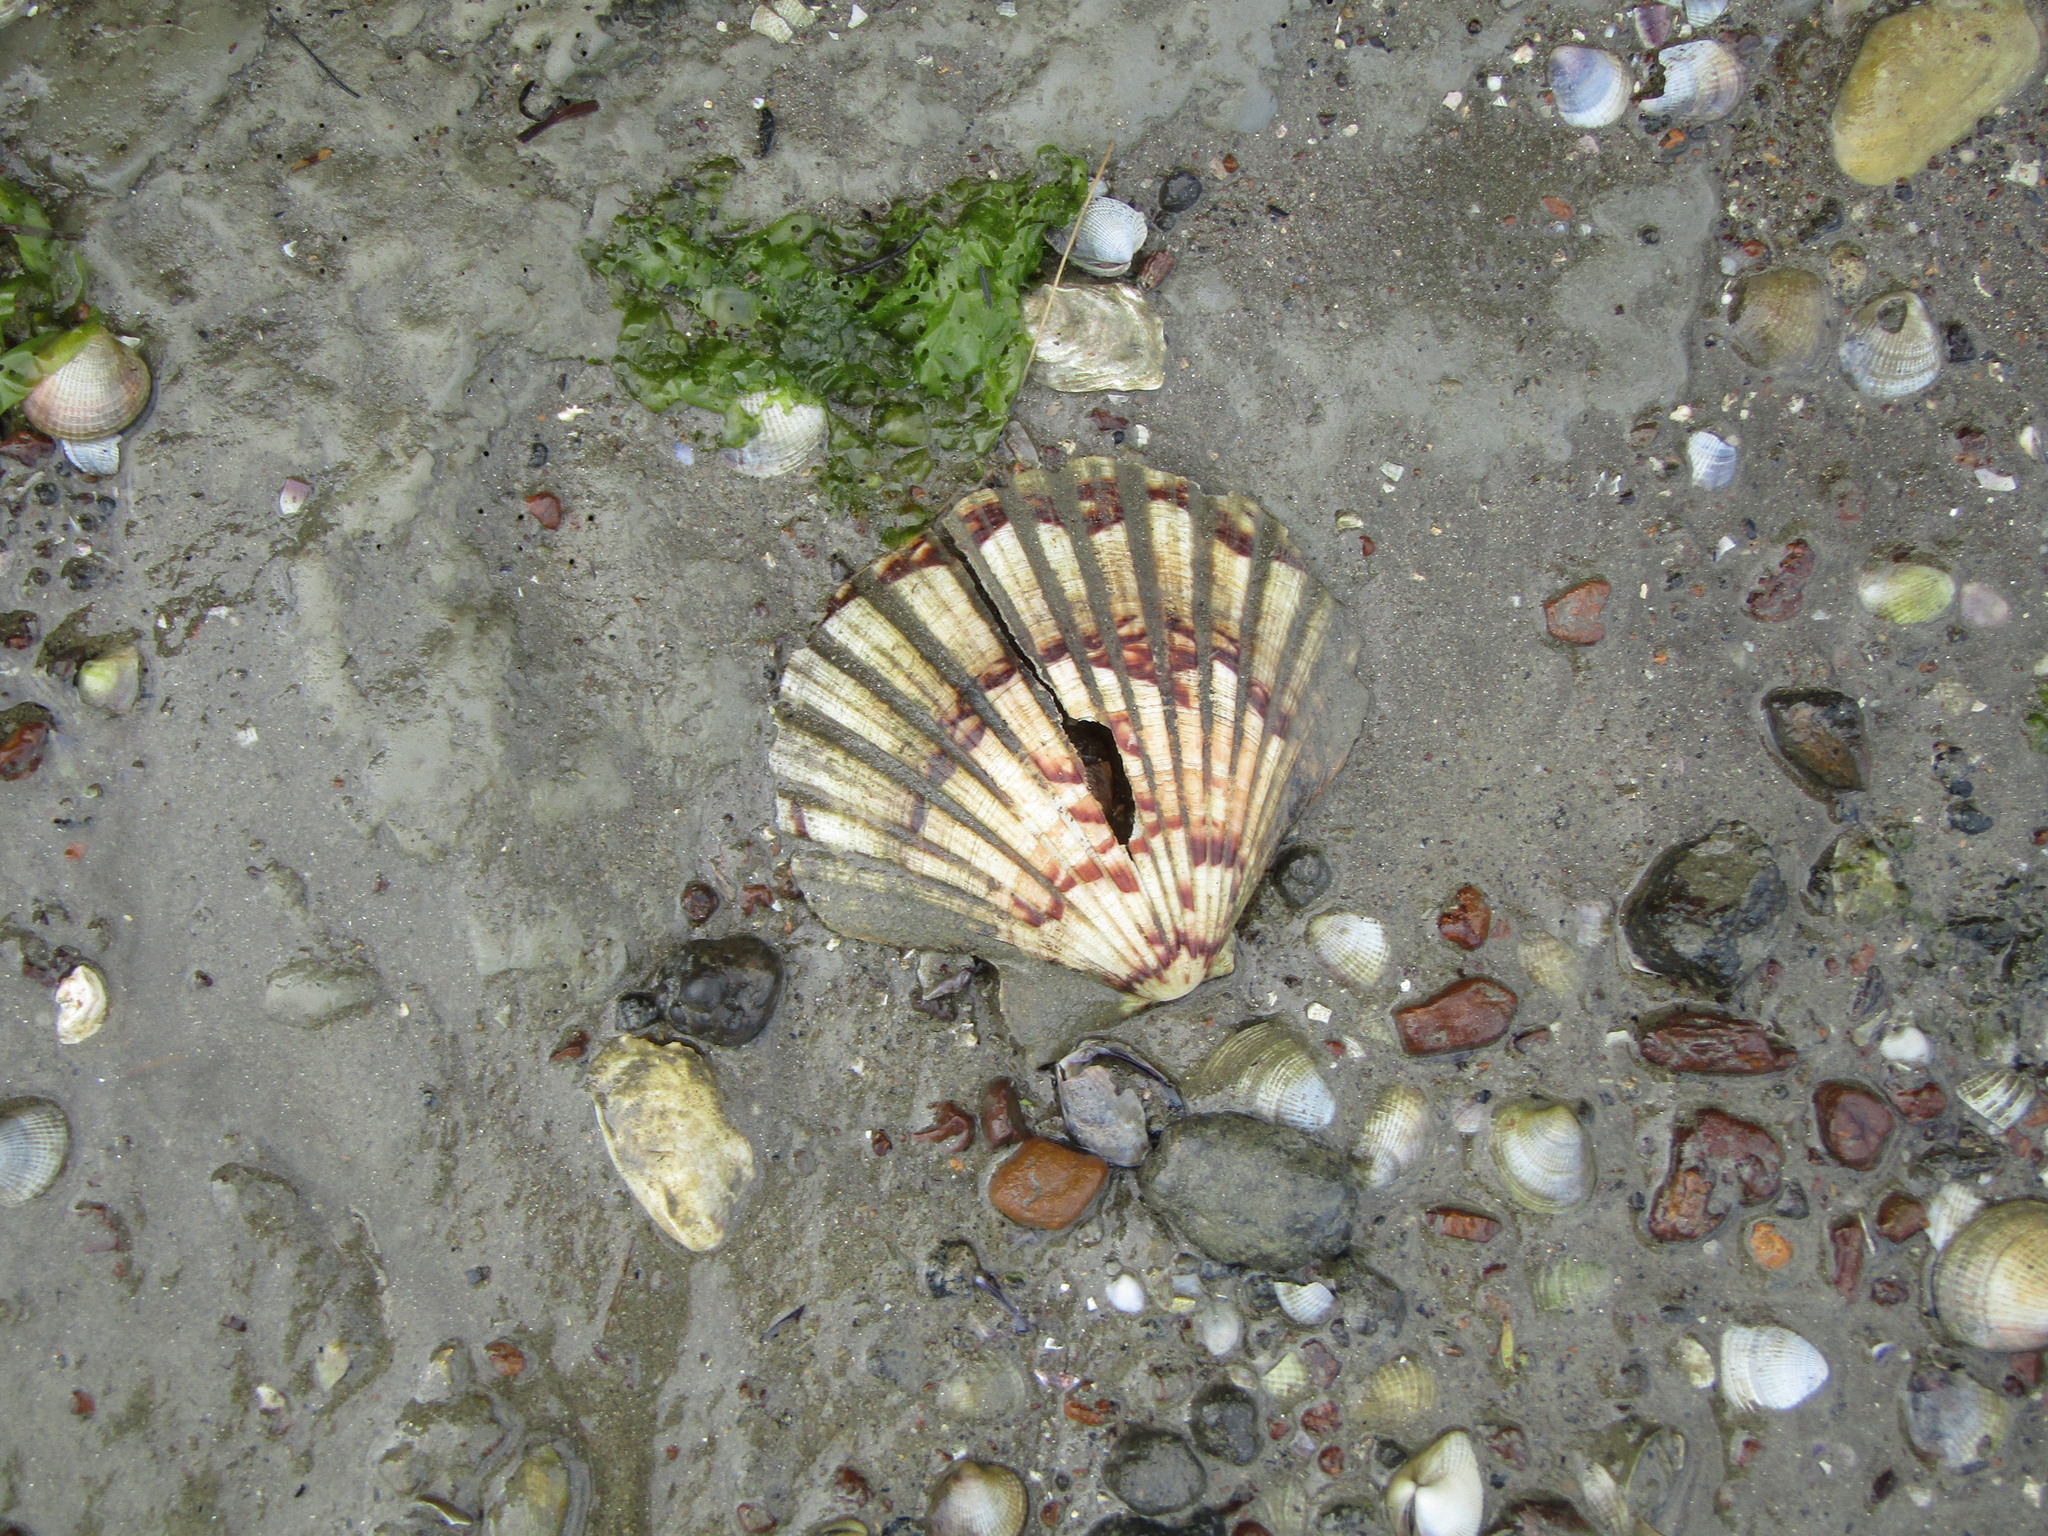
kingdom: Animalia
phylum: Mollusca
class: Bivalvia
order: Pectinida
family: Pectinidae
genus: Pecten
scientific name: Pecten novaezelandiae
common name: New zealand scallop
